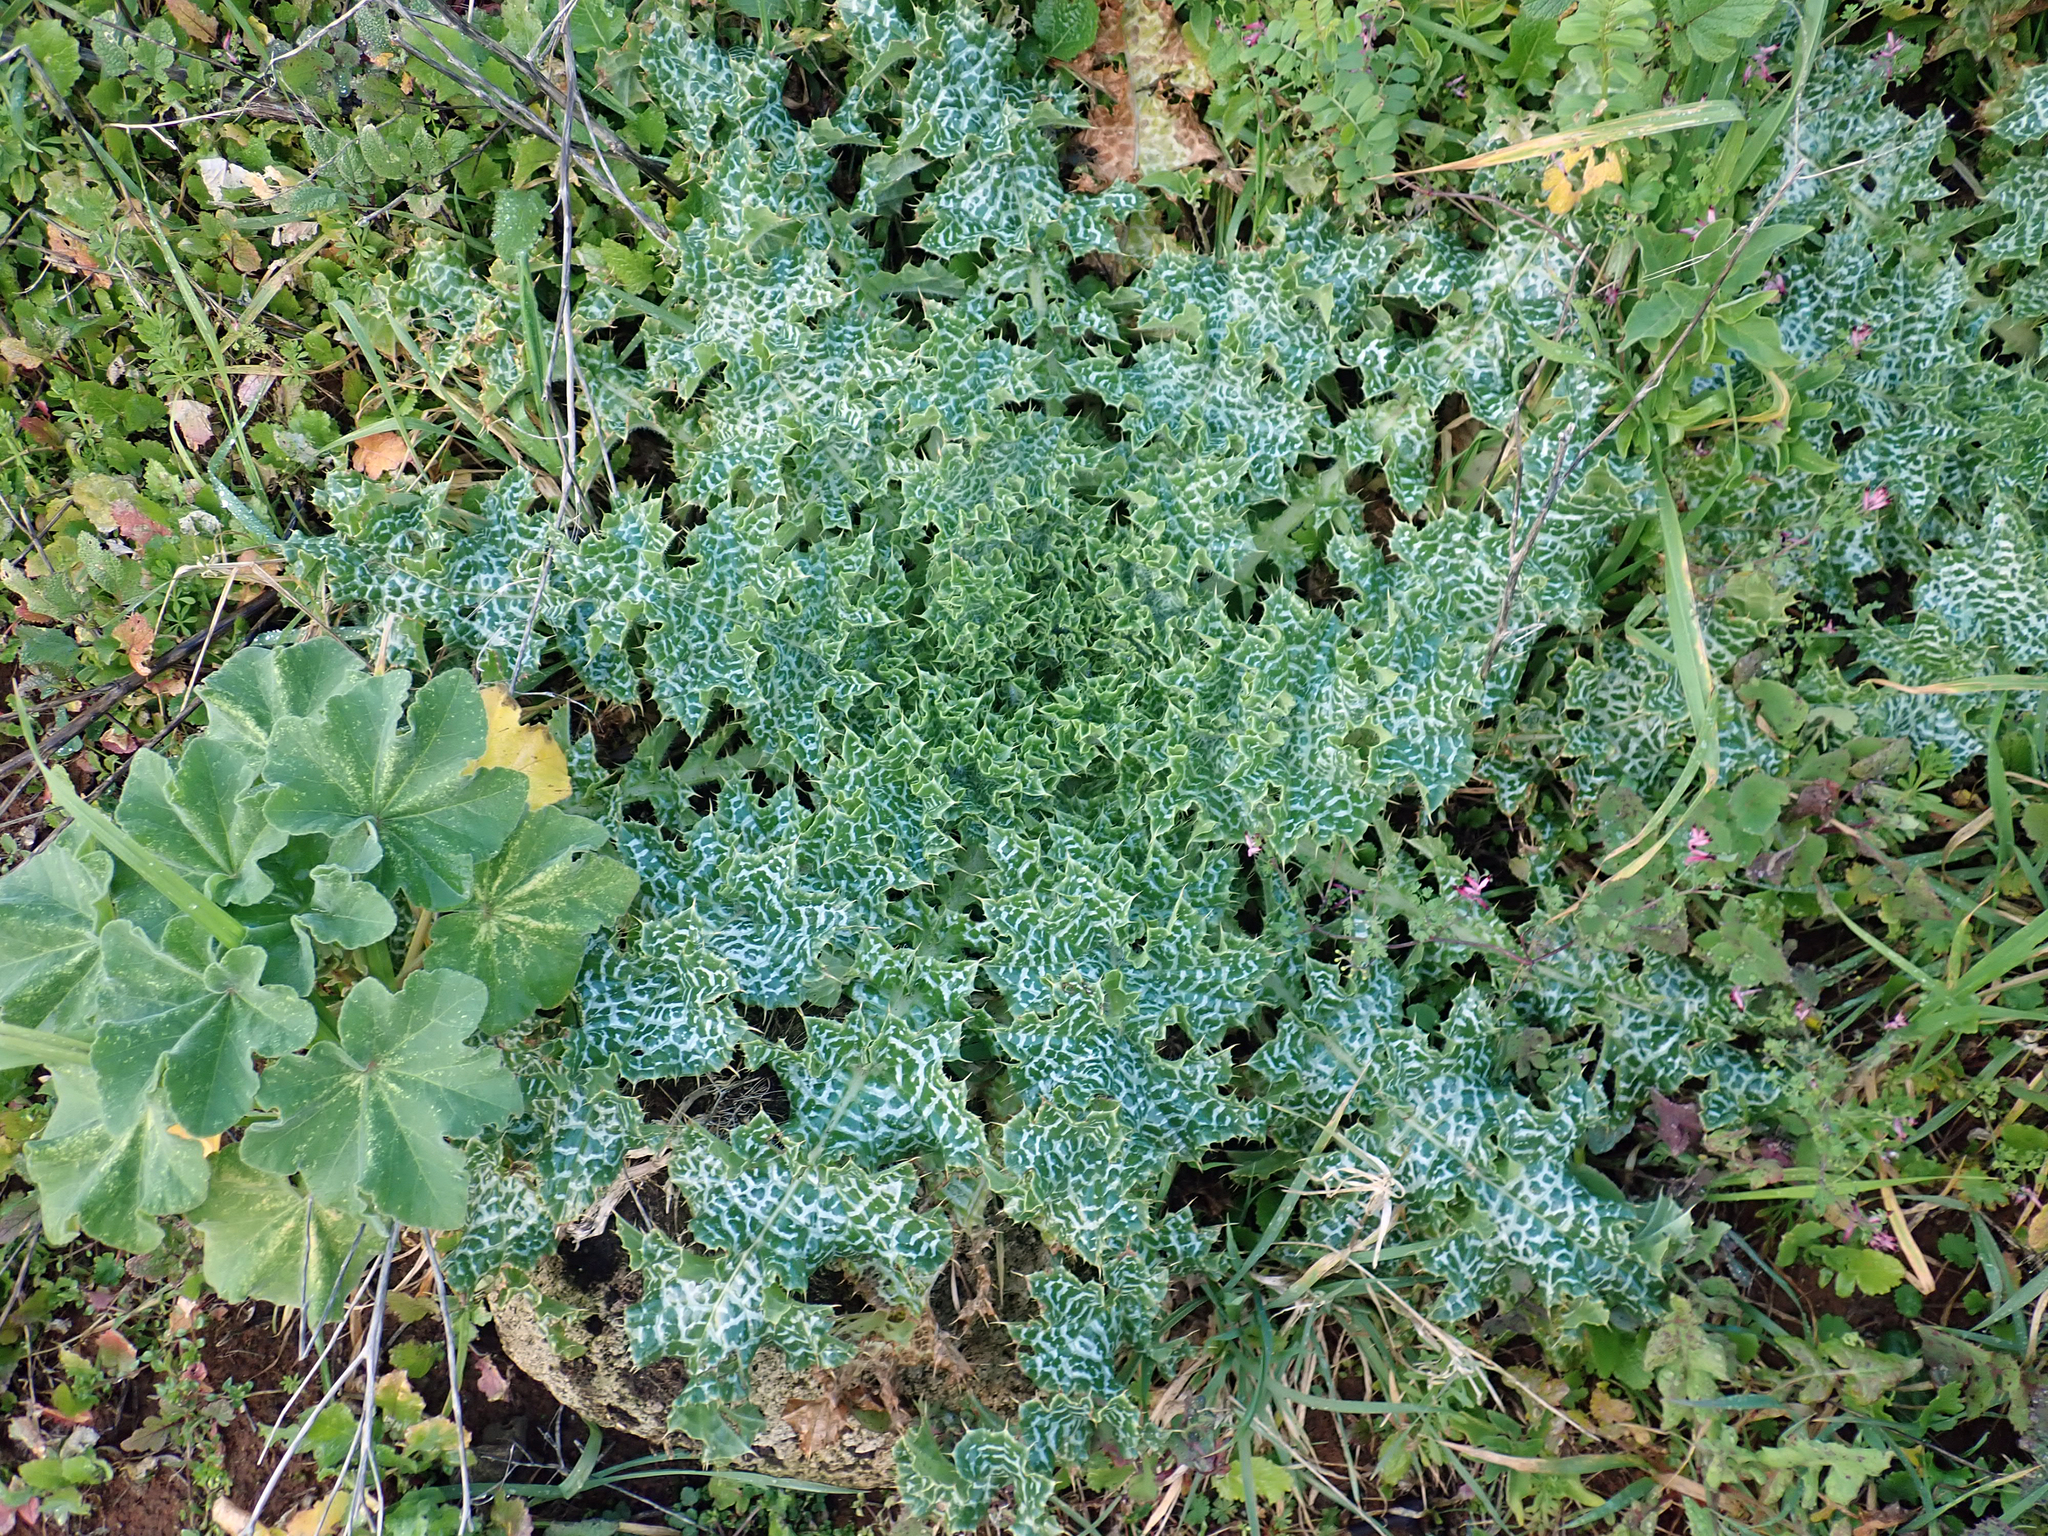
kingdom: Plantae
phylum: Tracheophyta
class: Magnoliopsida
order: Asterales
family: Asteraceae
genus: Silybum
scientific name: Silybum marianum
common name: Milk thistle
